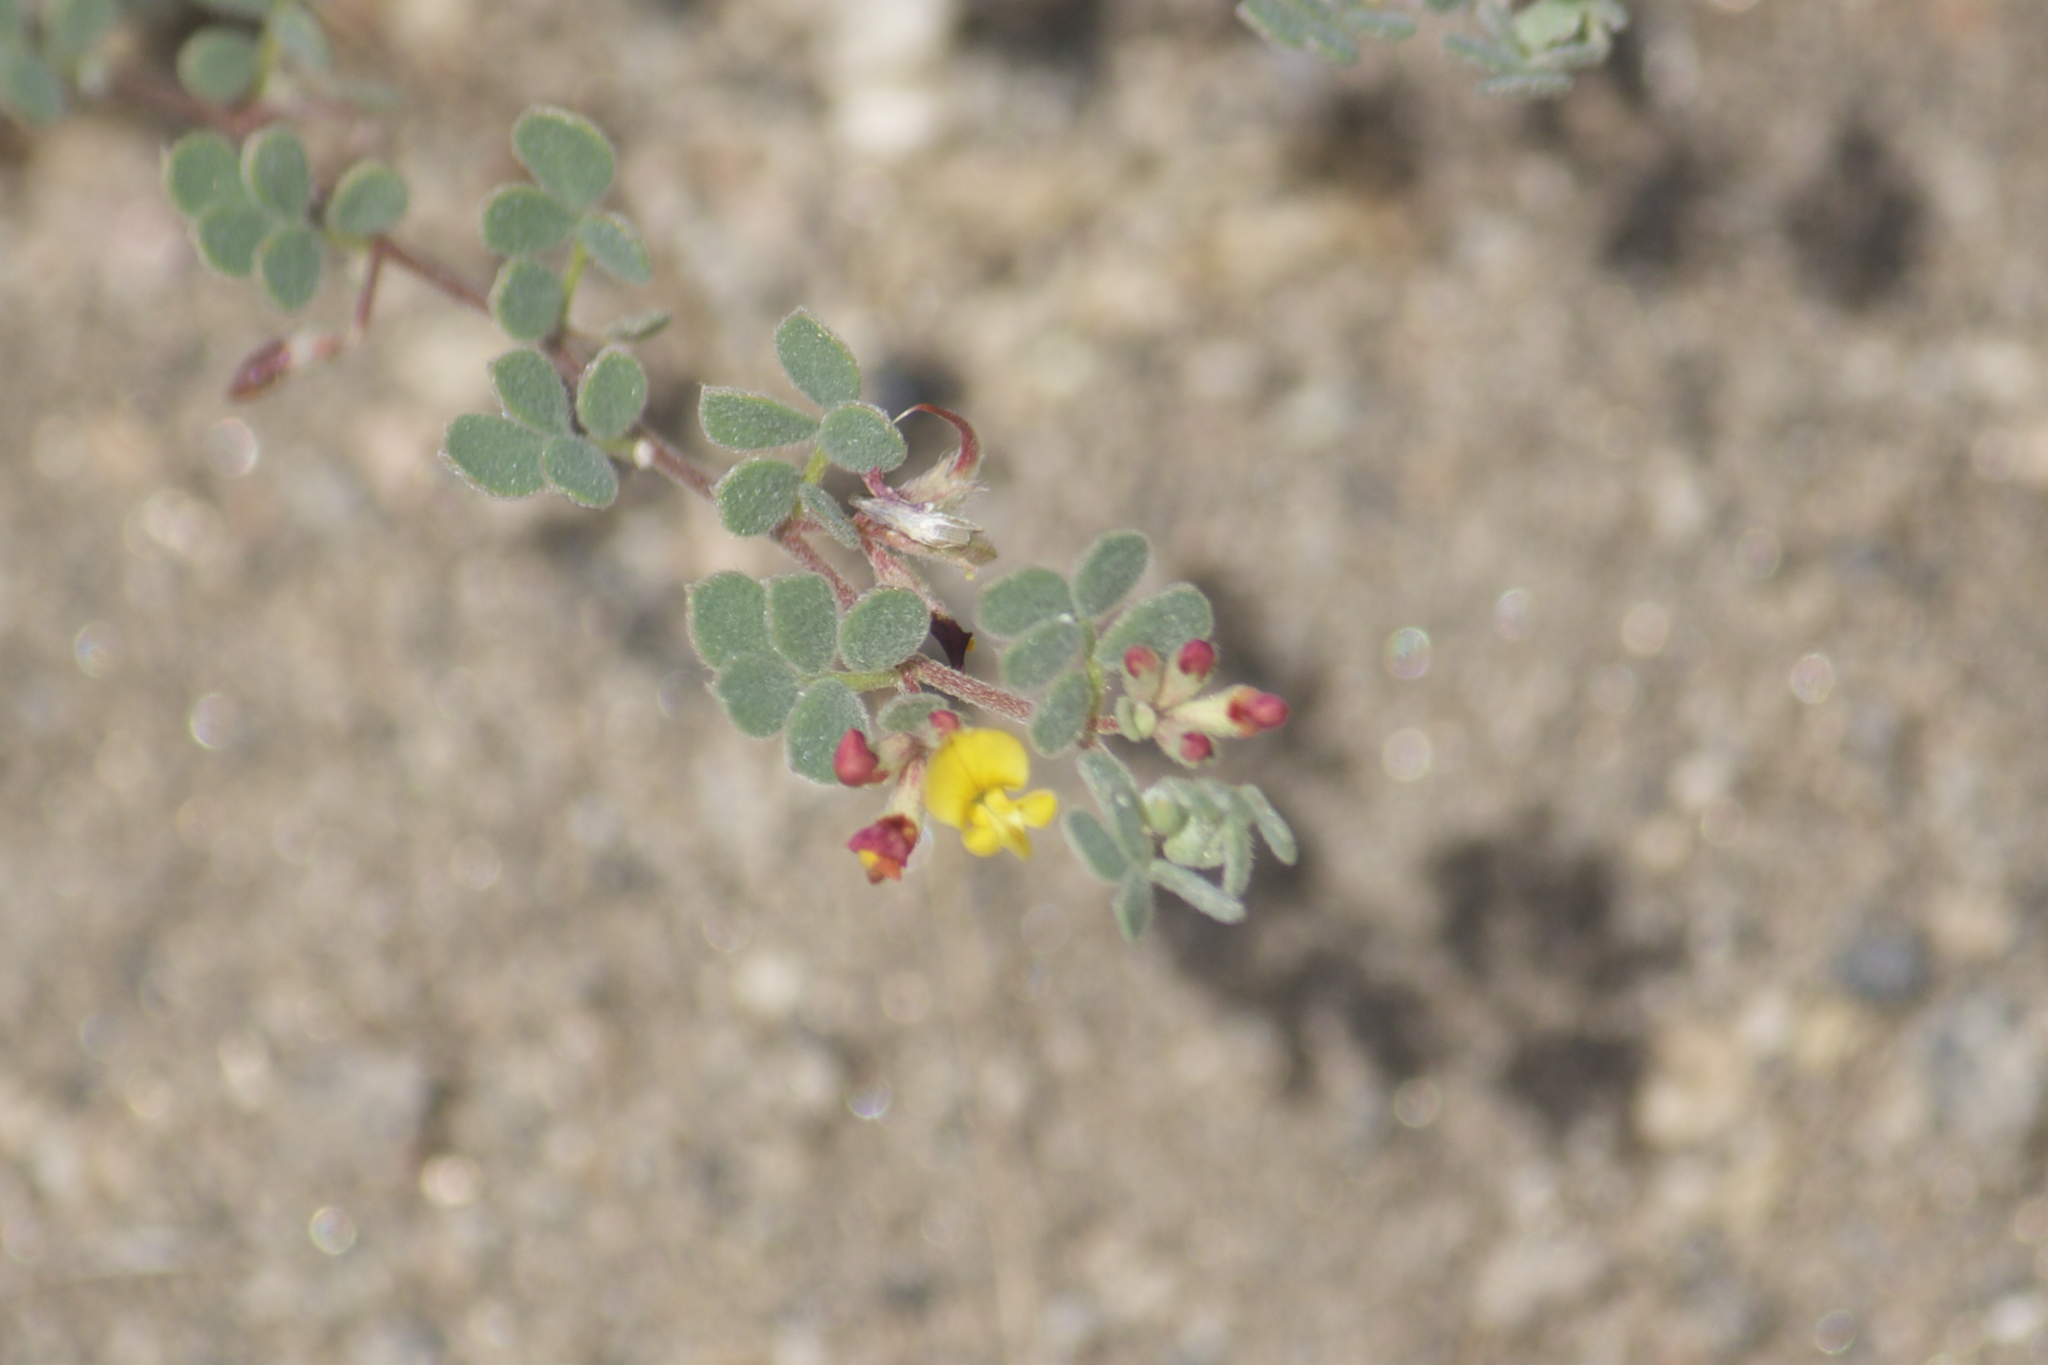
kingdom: Plantae
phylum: Tracheophyta
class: Magnoliopsida
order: Fabales
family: Fabaceae
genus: Acmispon
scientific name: Acmispon decumbens
